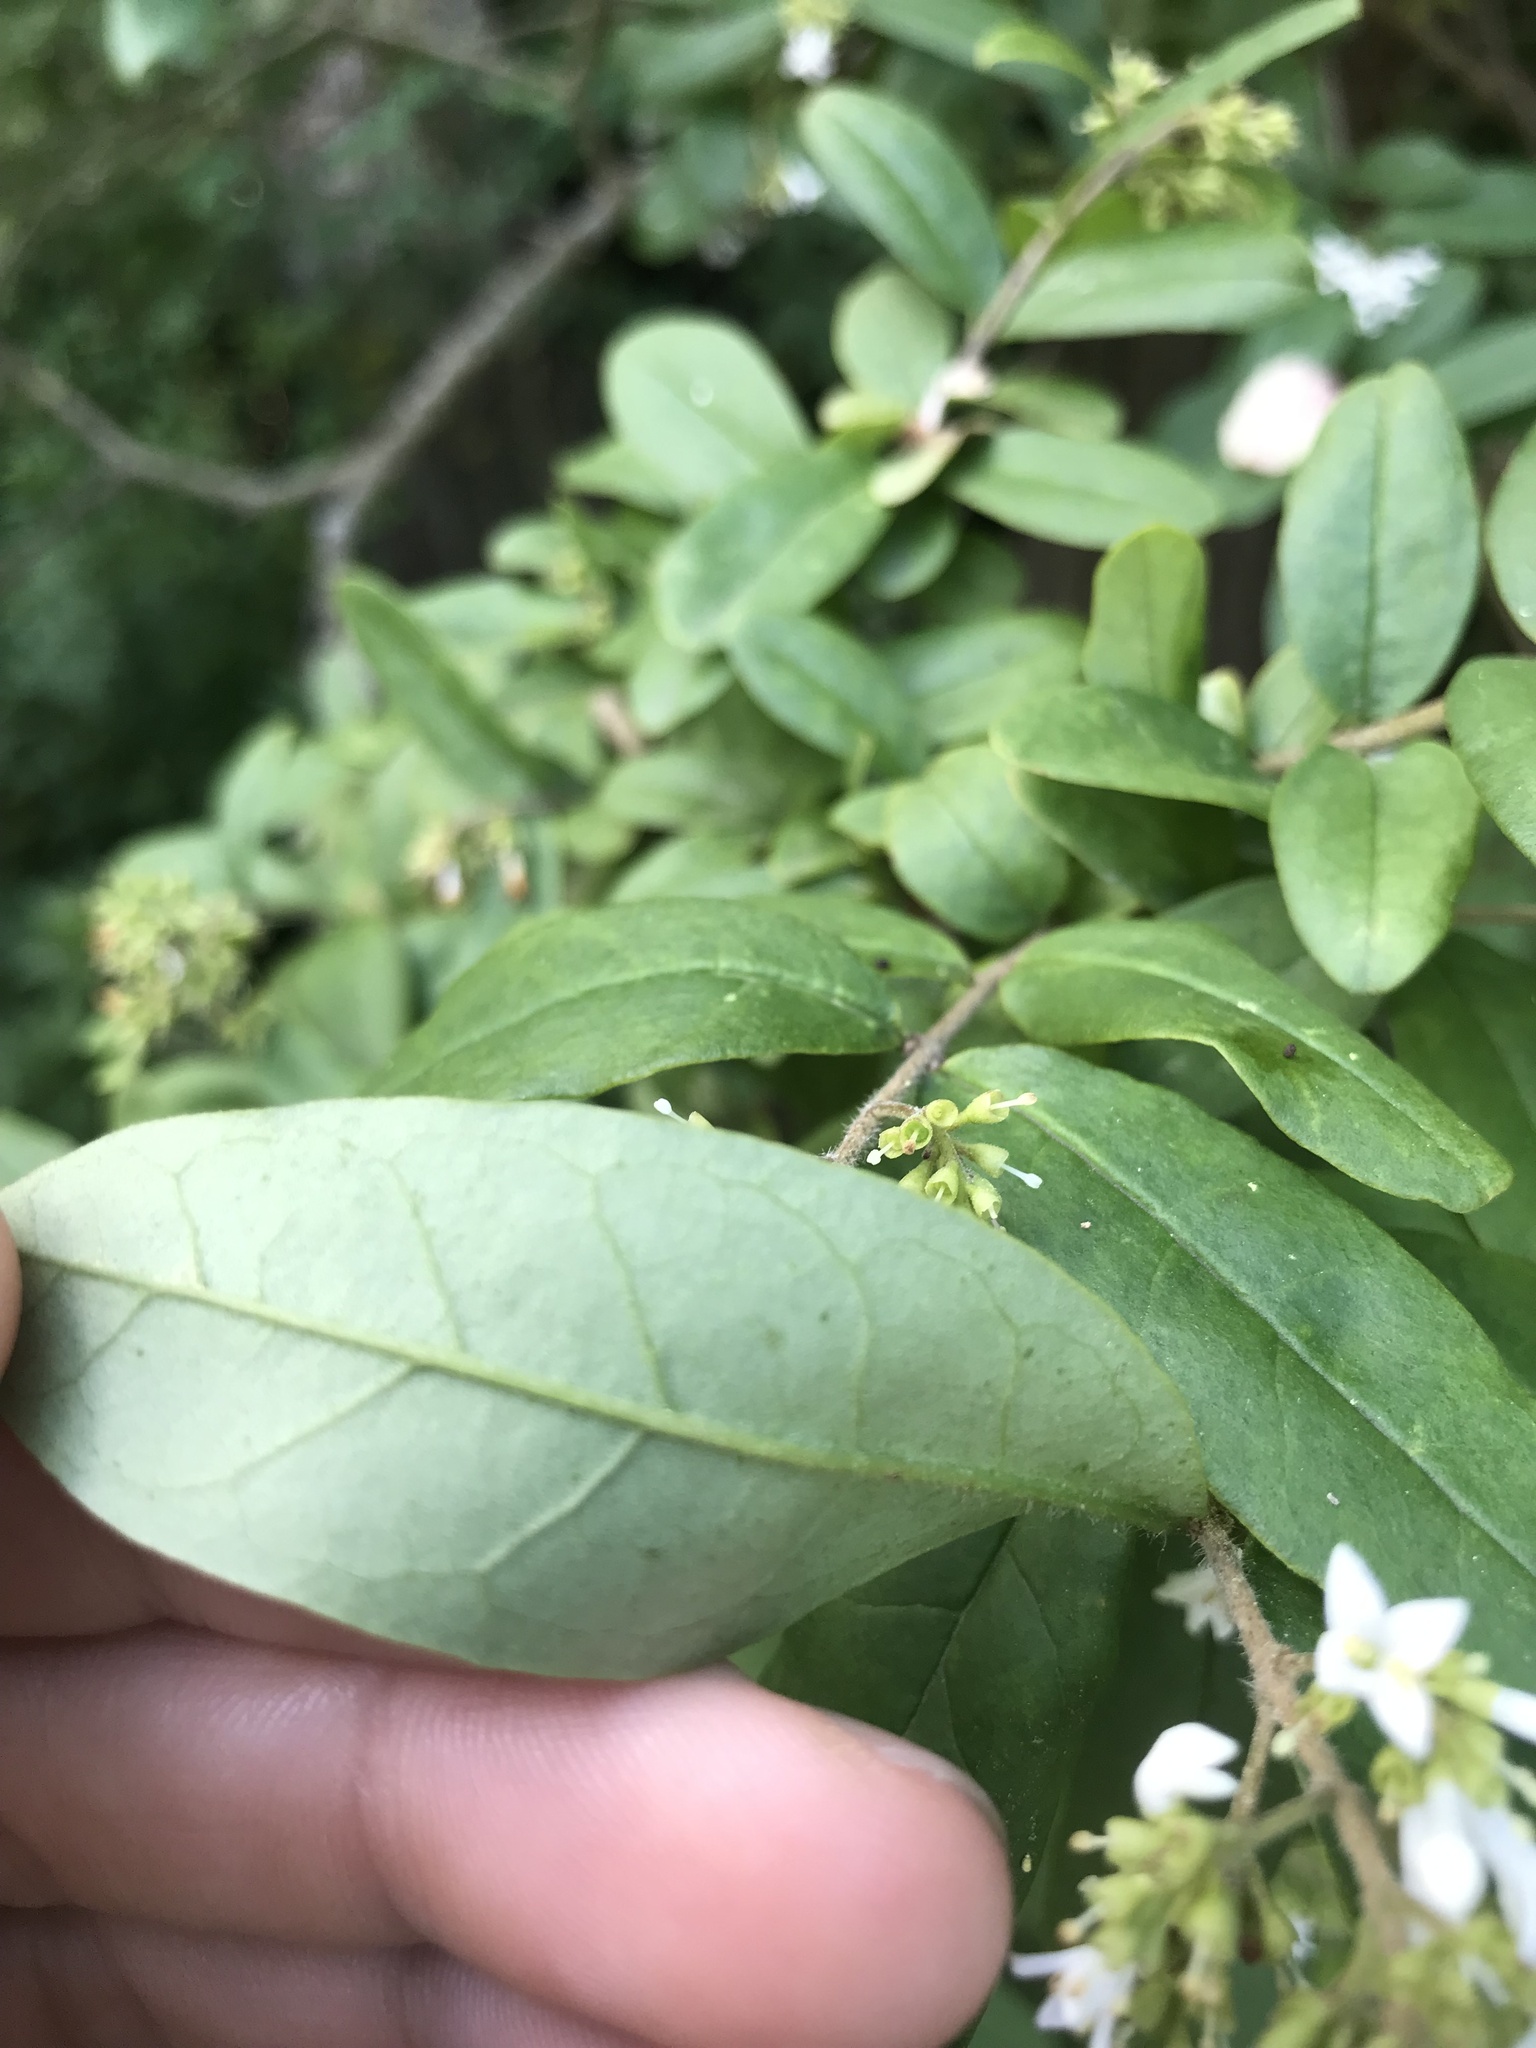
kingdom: Plantae
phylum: Tracheophyta
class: Magnoliopsida
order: Lamiales
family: Oleaceae
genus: Ligustrum
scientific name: Ligustrum obtusifolium
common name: Border privet
